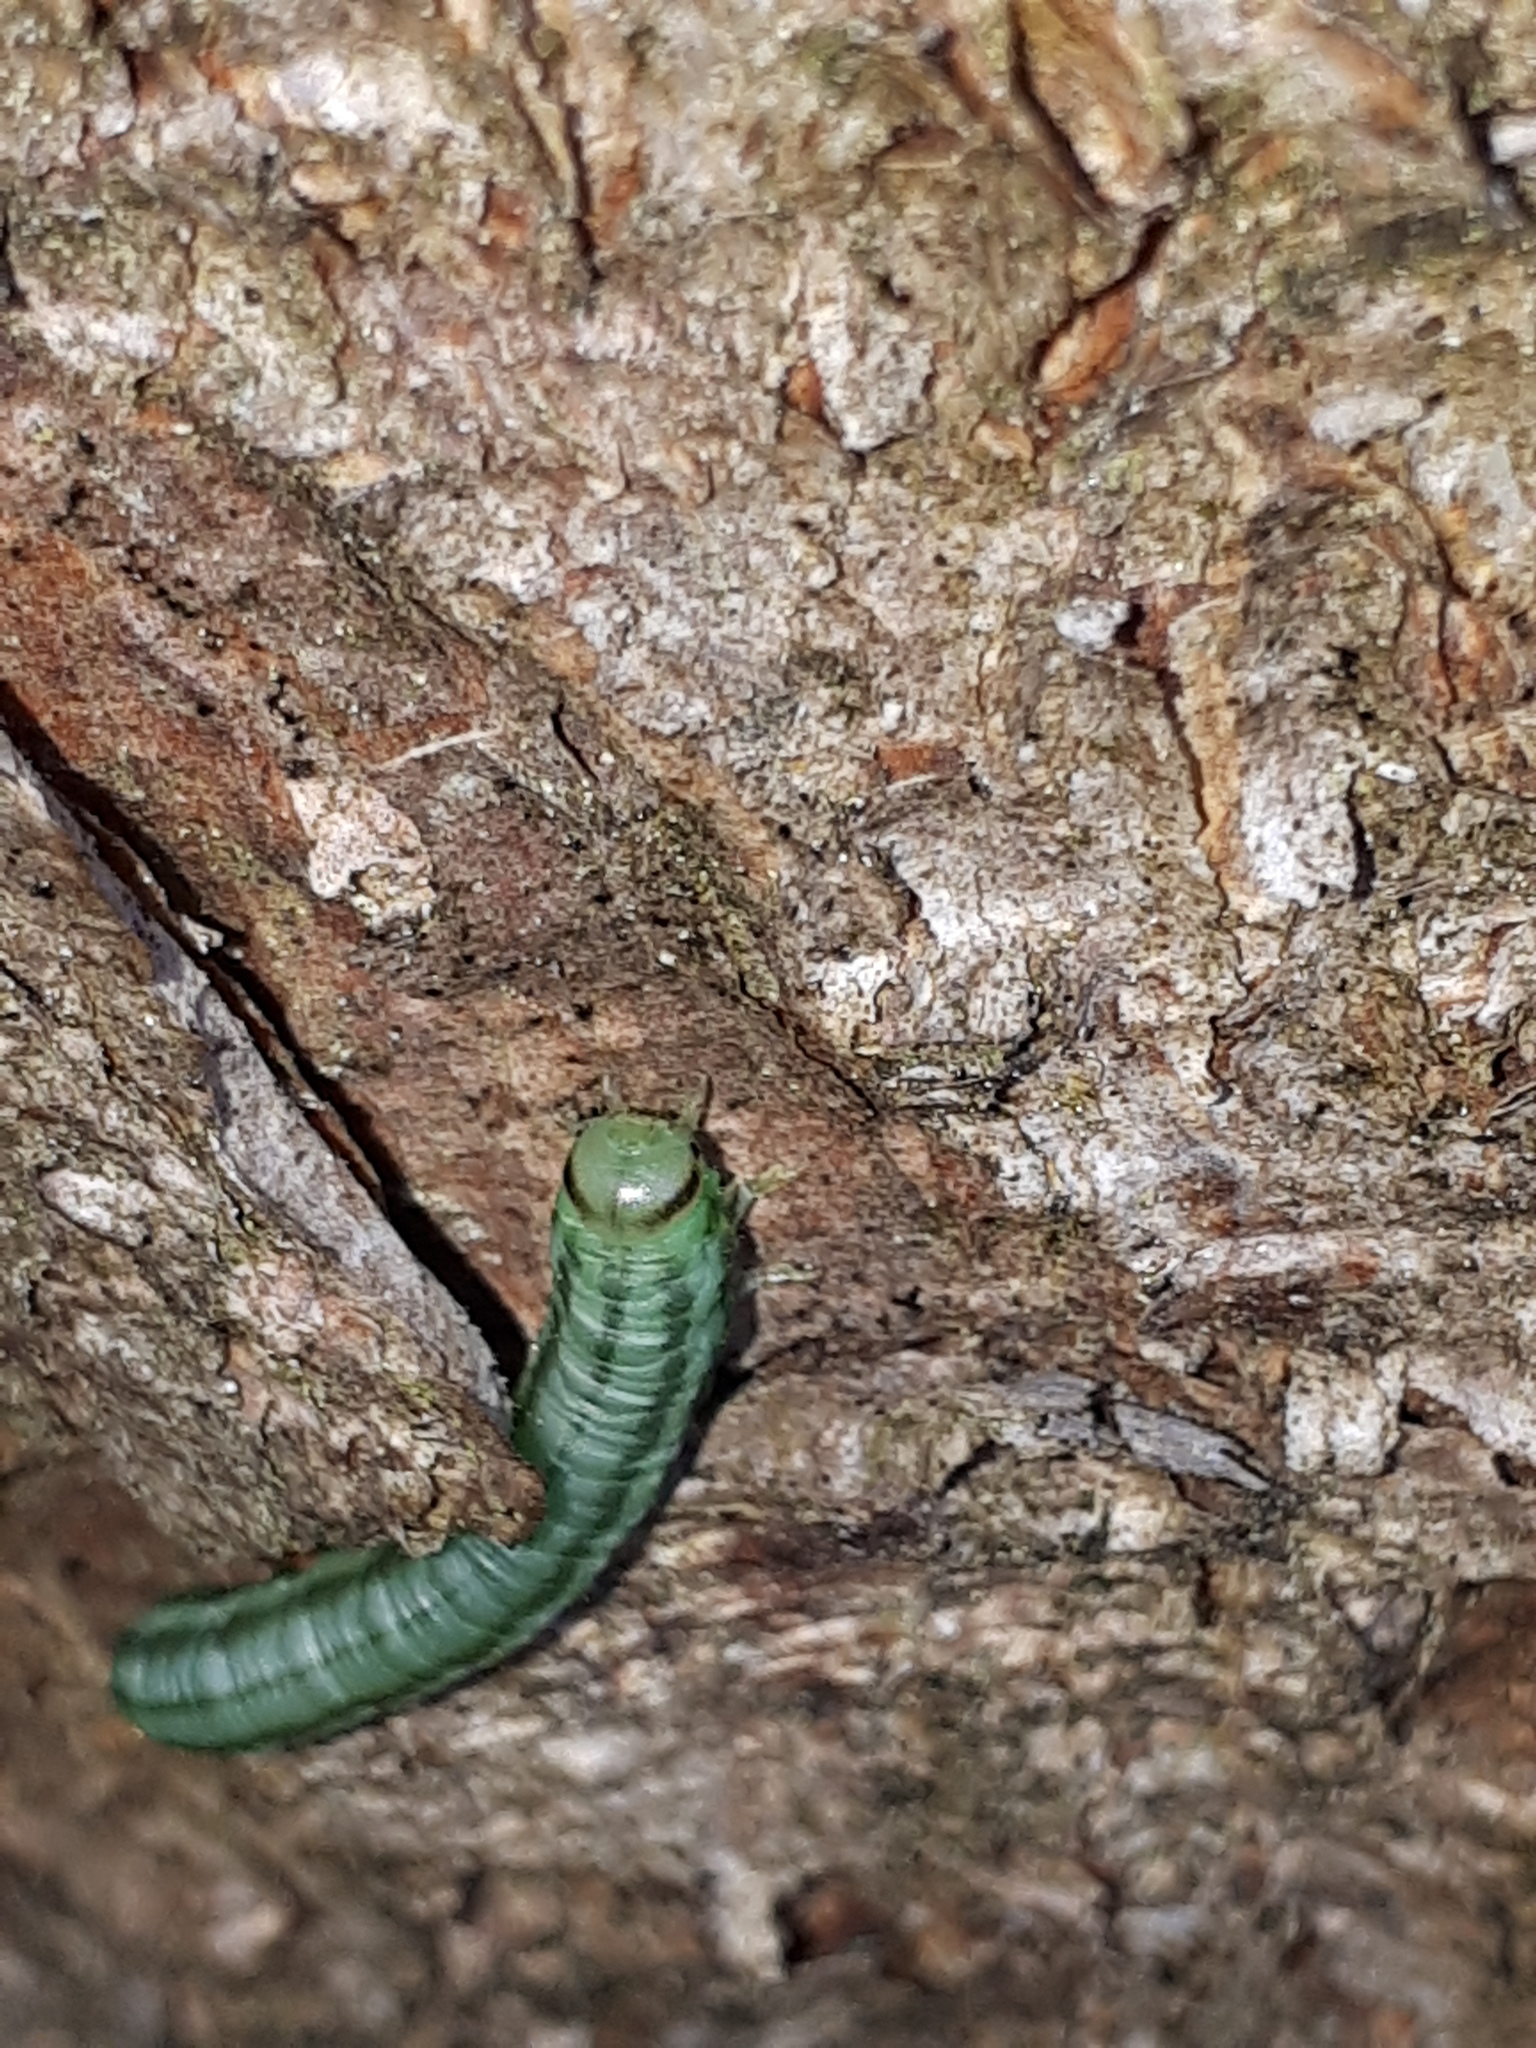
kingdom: Animalia
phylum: Arthropoda
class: Insecta
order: Hymenoptera
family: Tenthredinidae
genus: Pachynematus
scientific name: Pachynematus scutellatus
